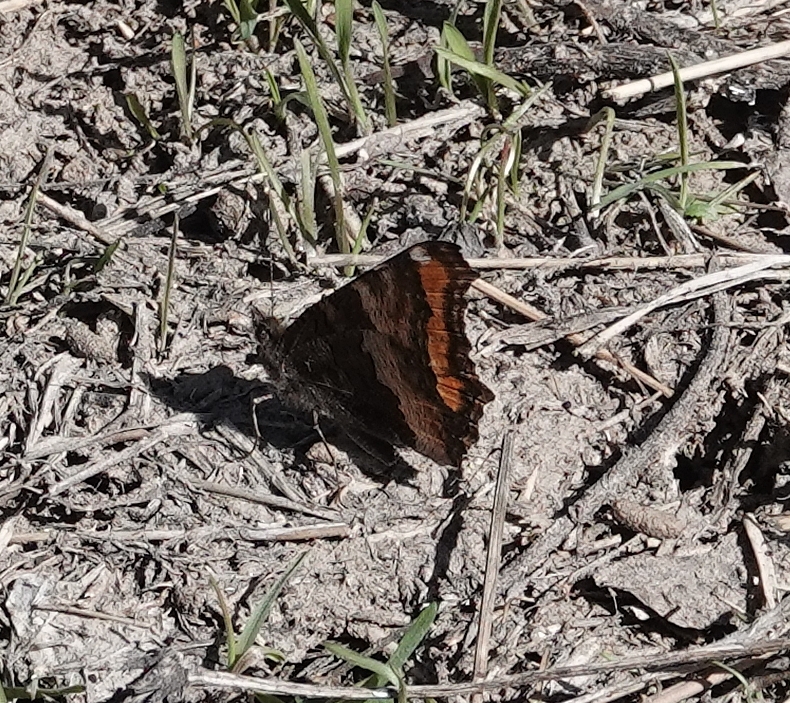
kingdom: Animalia
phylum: Arthropoda
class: Insecta
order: Lepidoptera
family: Nymphalidae
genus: Aglais
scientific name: Aglais milberti
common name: Milbert's tortoiseshell
